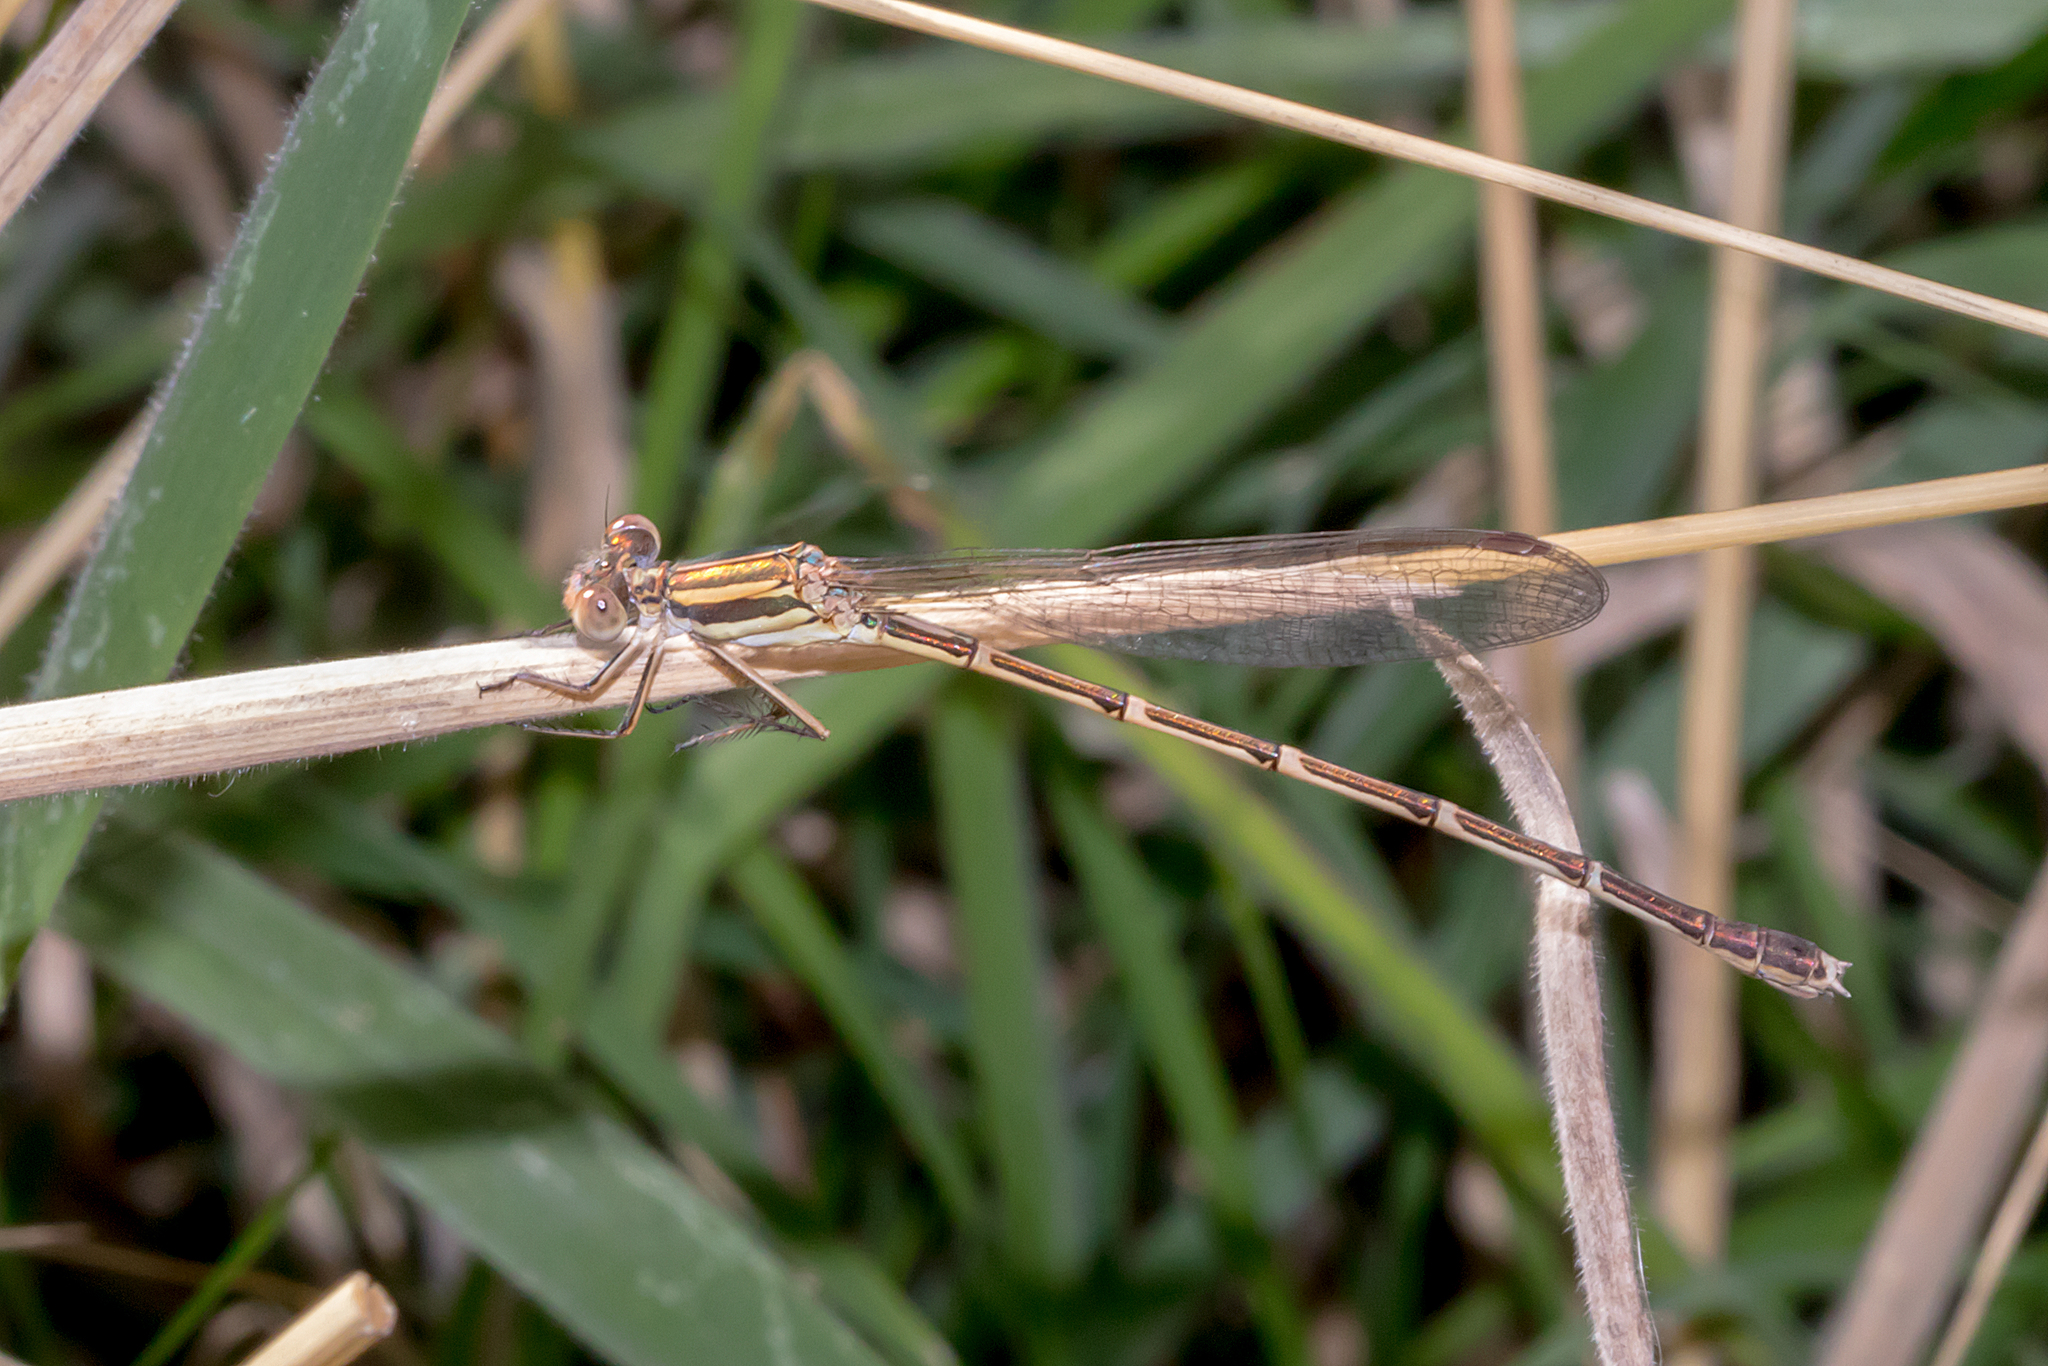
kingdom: Animalia
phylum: Arthropoda
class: Insecta
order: Odonata
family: Lestidae
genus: Austrolestes
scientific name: Austrolestes analis
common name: Slender ringtail
